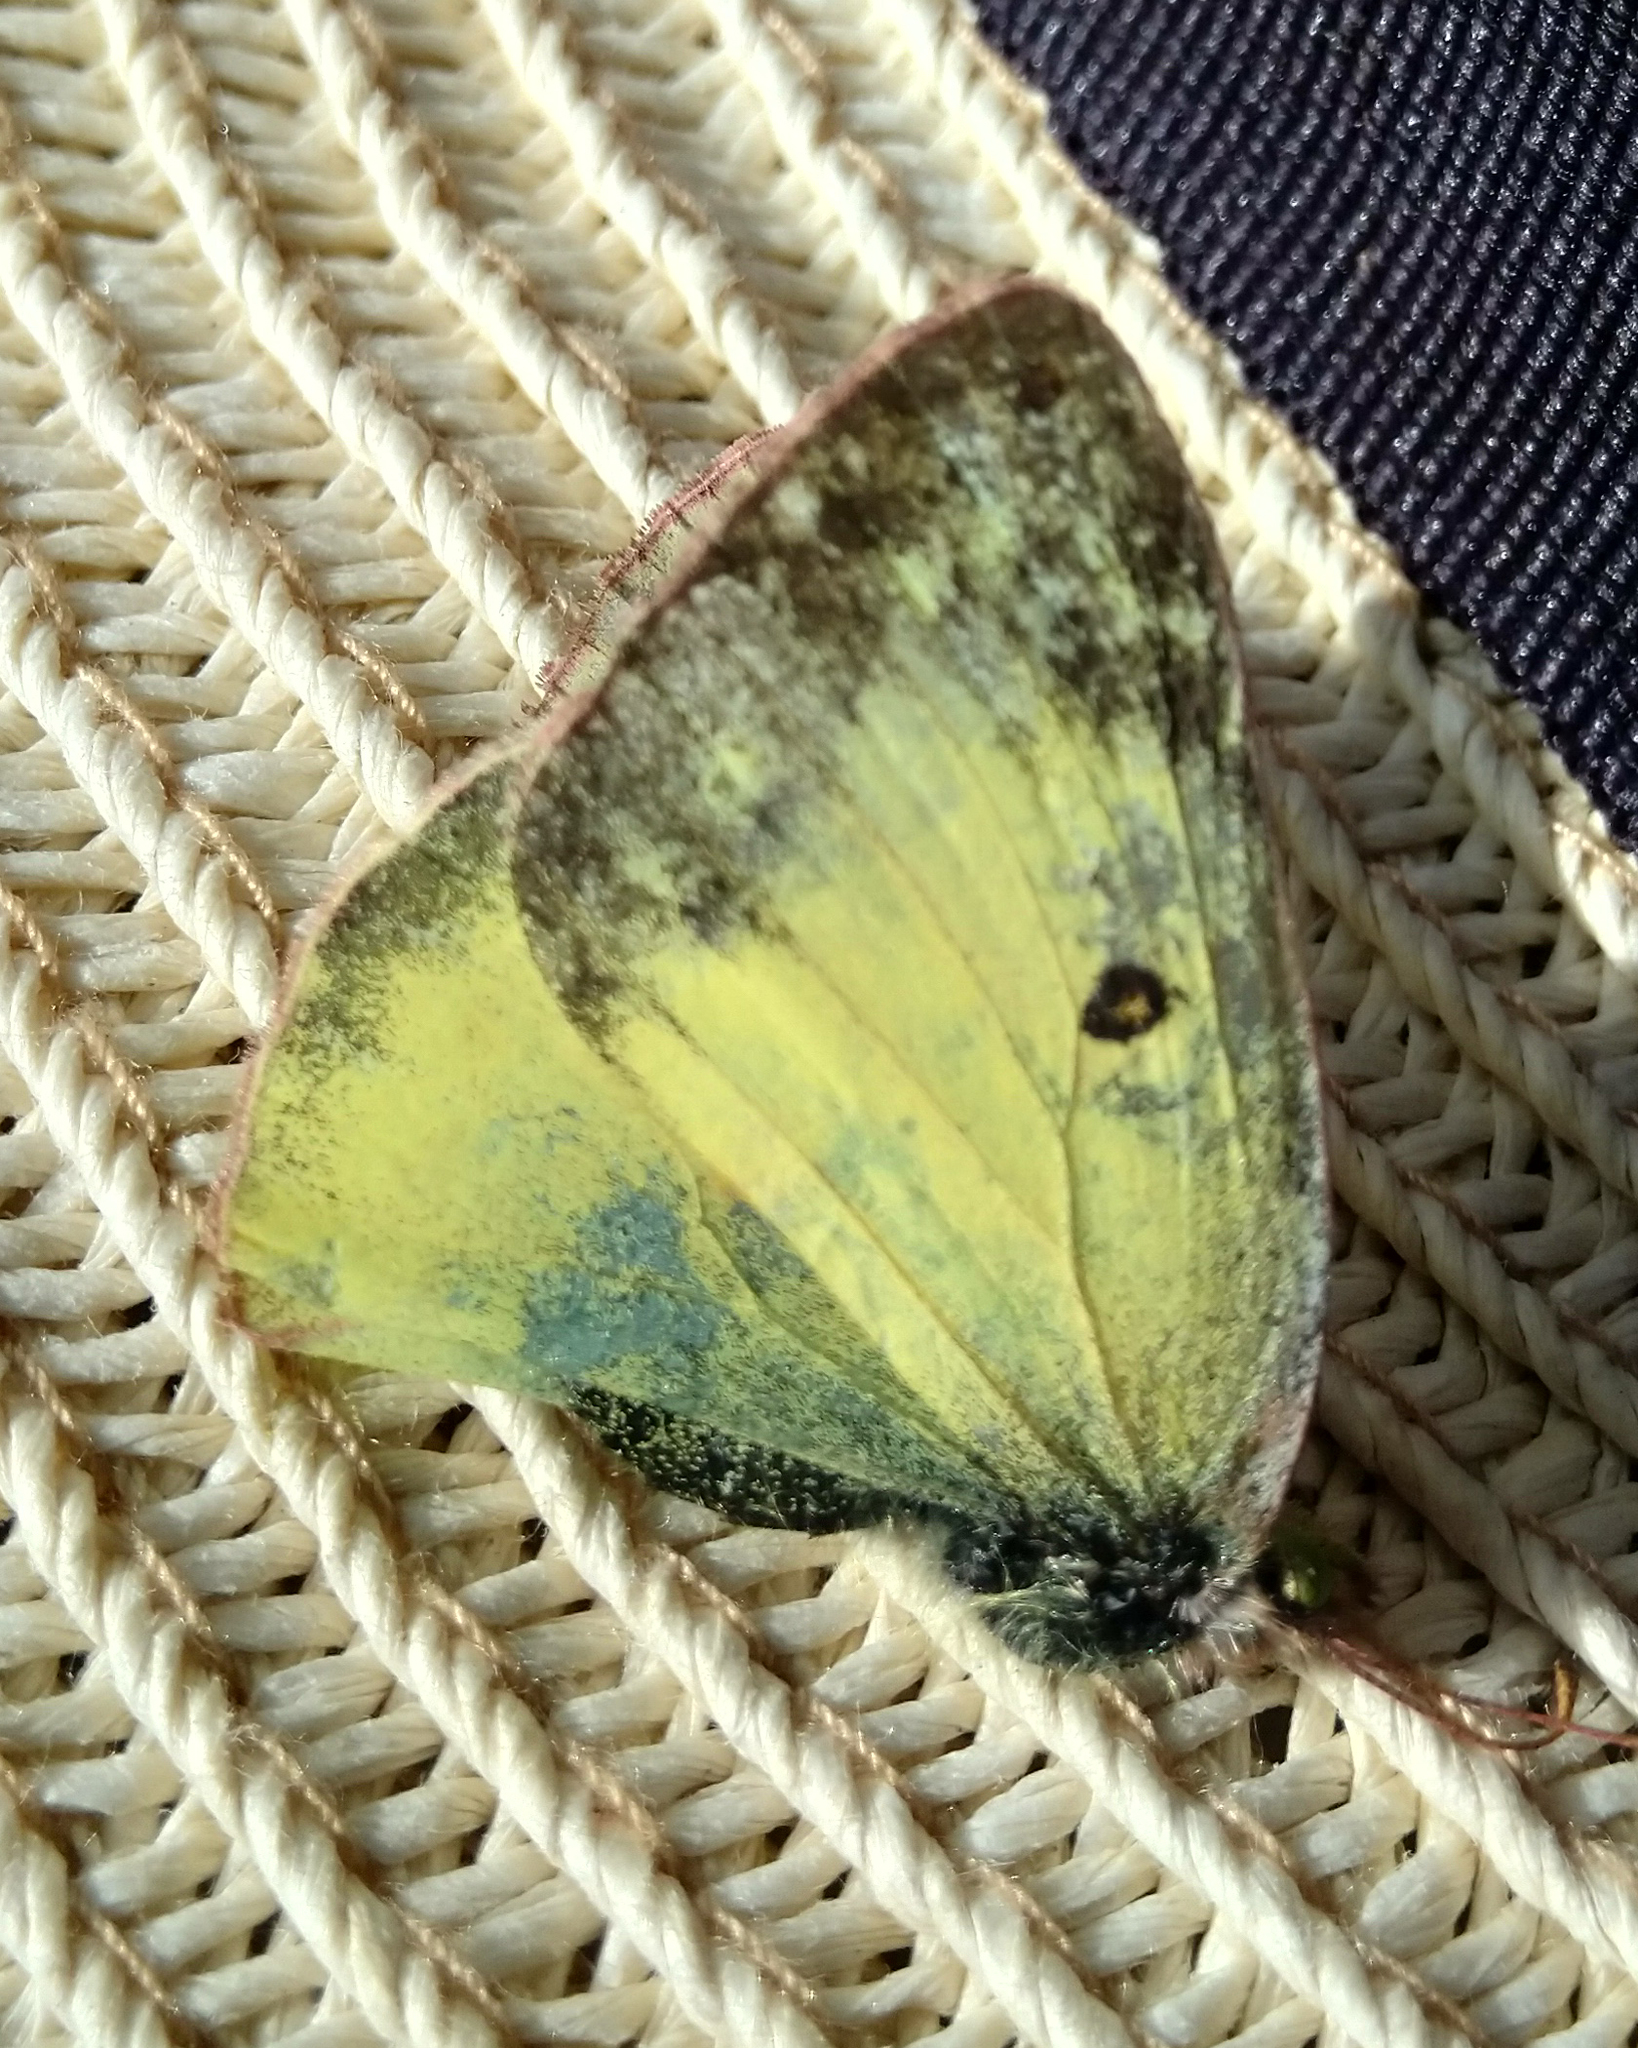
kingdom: Animalia
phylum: Arthropoda
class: Insecta
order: Lepidoptera
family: Pieridae
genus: Colias
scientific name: Colias philodice
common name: Clouded sulphur
